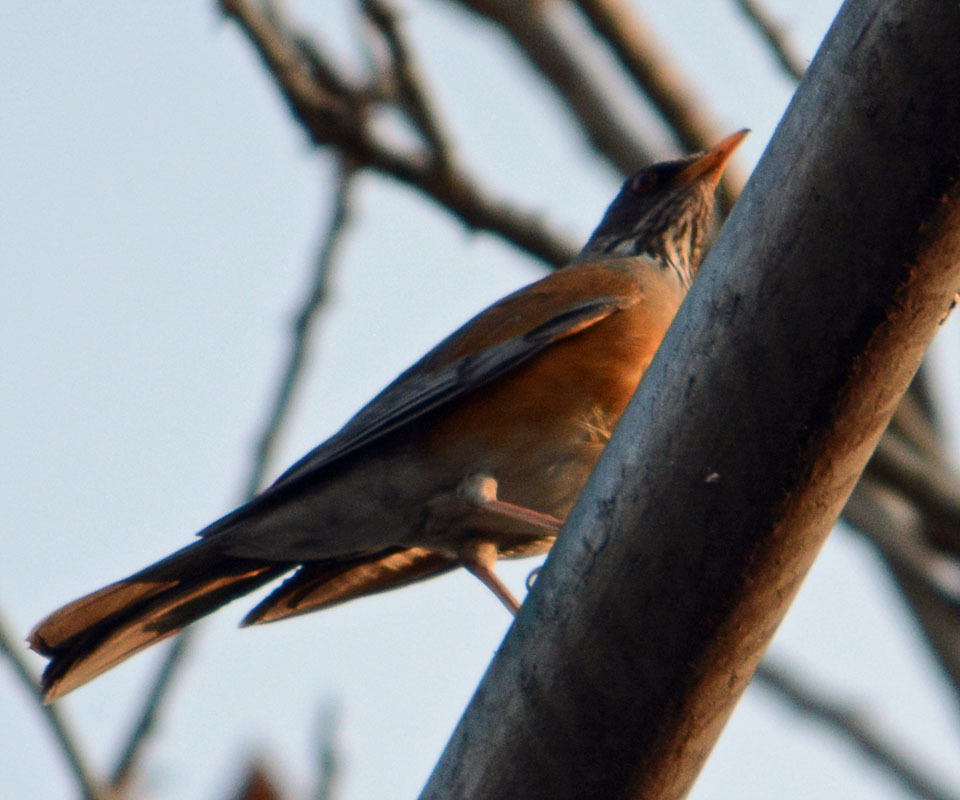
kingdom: Animalia
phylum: Chordata
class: Aves
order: Passeriformes
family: Turdidae
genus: Turdus
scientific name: Turdus rufopalliatus
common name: Rufous-backed robin
